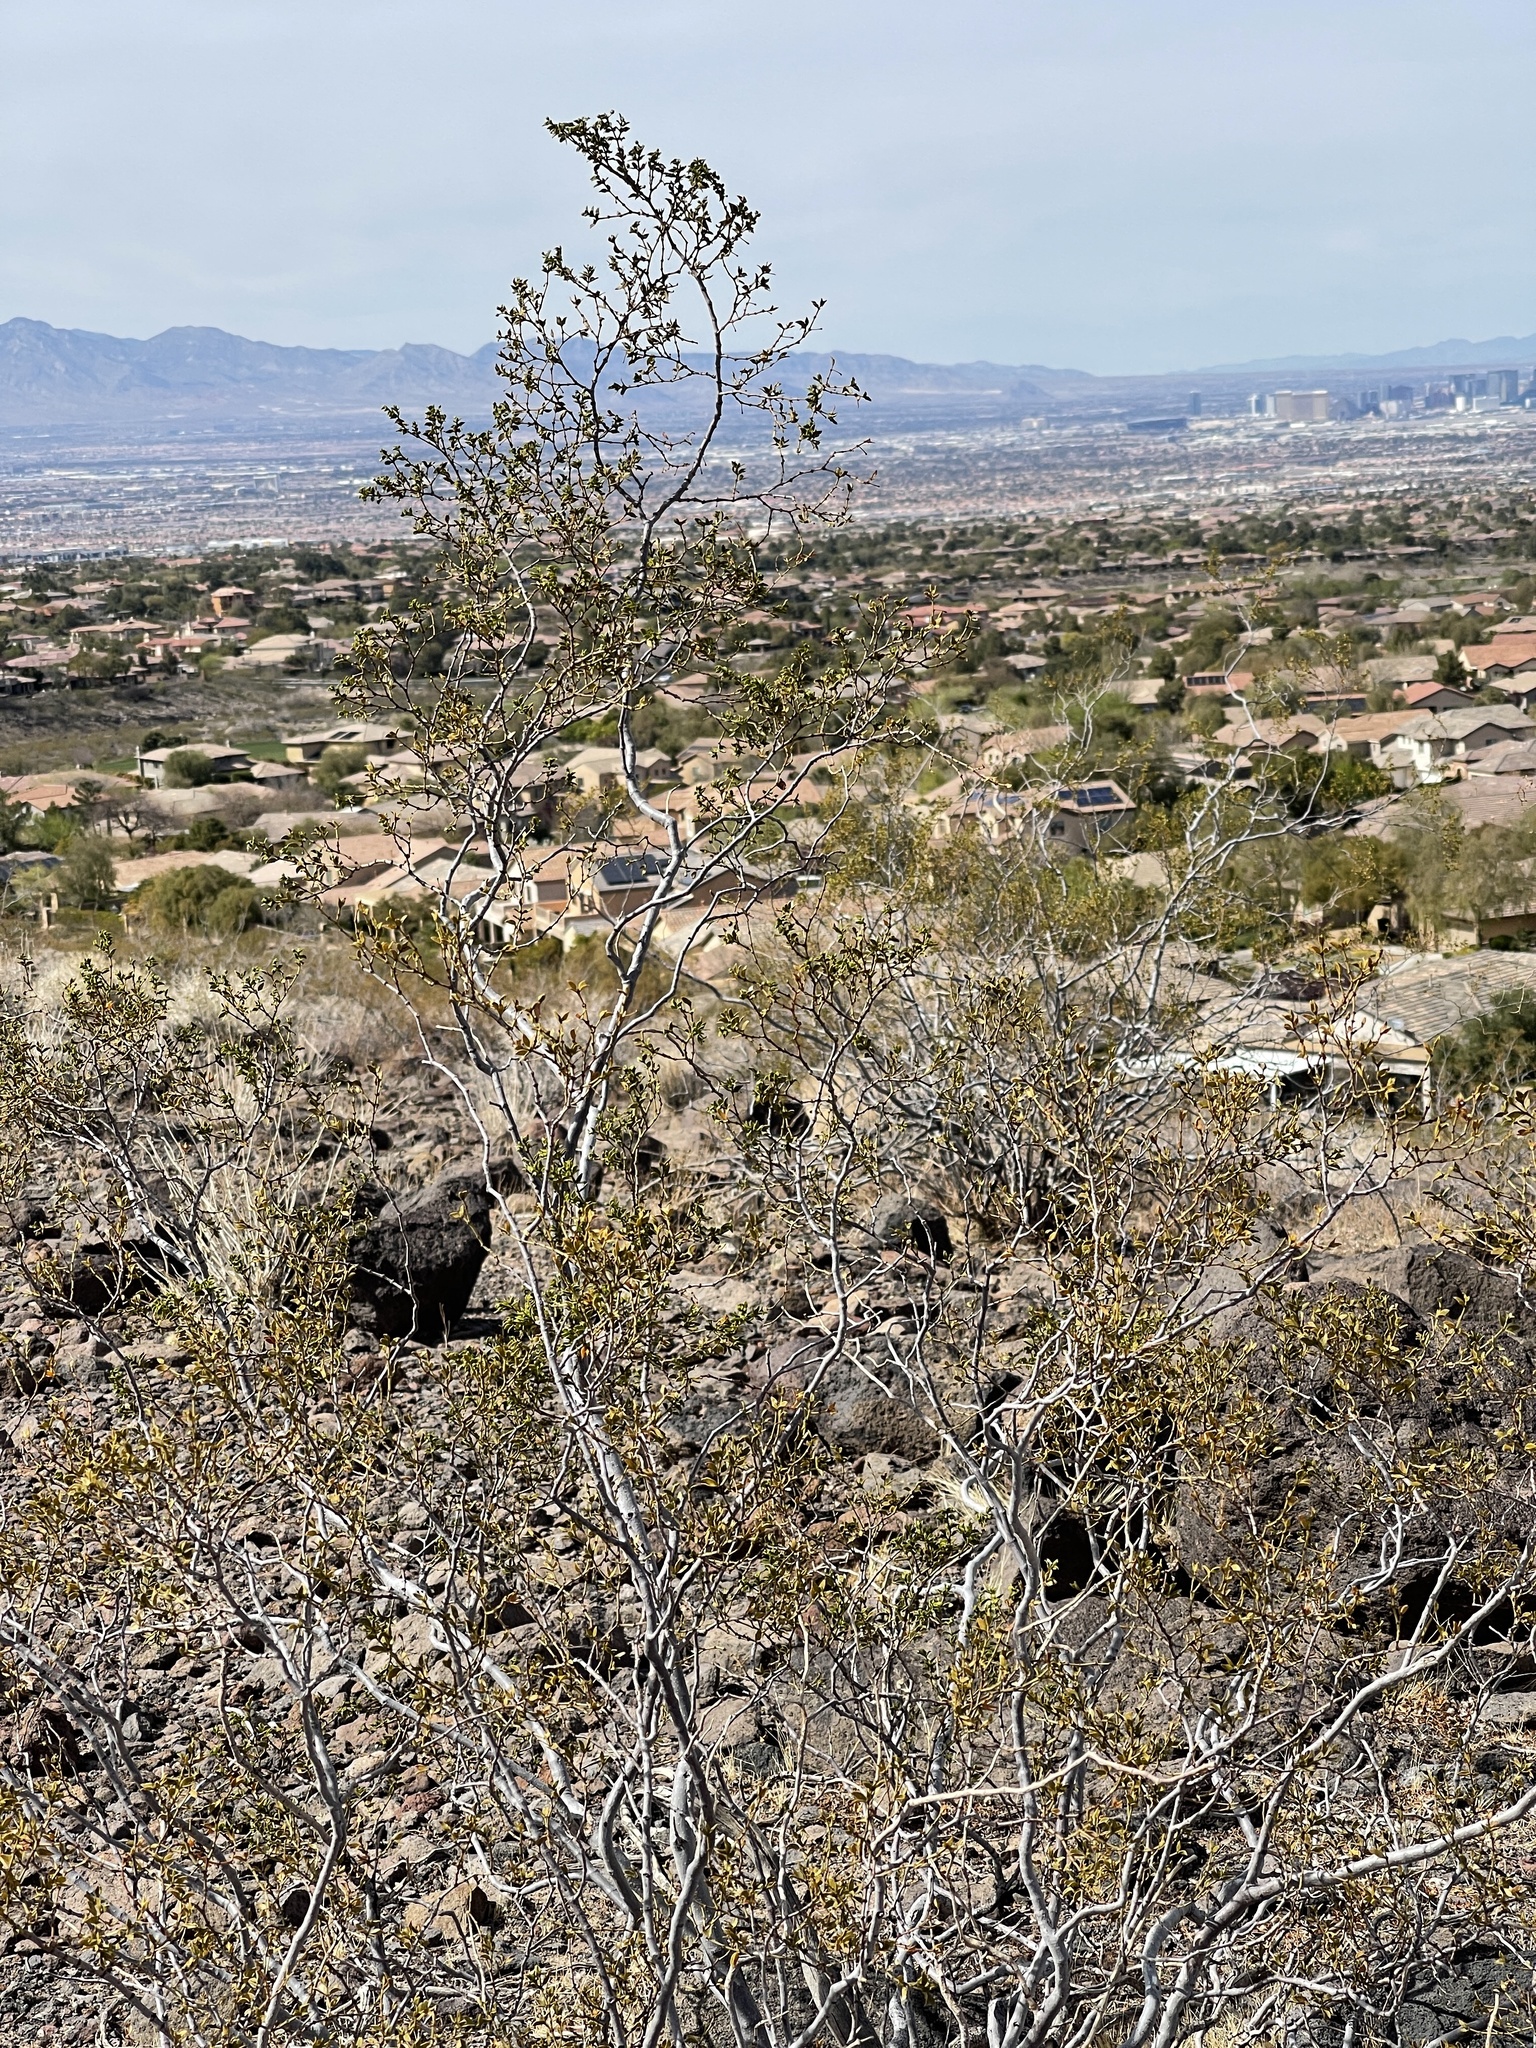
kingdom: Plantae
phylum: Tracheophyta
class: Magnoliopsida
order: Zygophyllales
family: Zygophyllaceae
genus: Larrea
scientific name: Larrea tridentata
